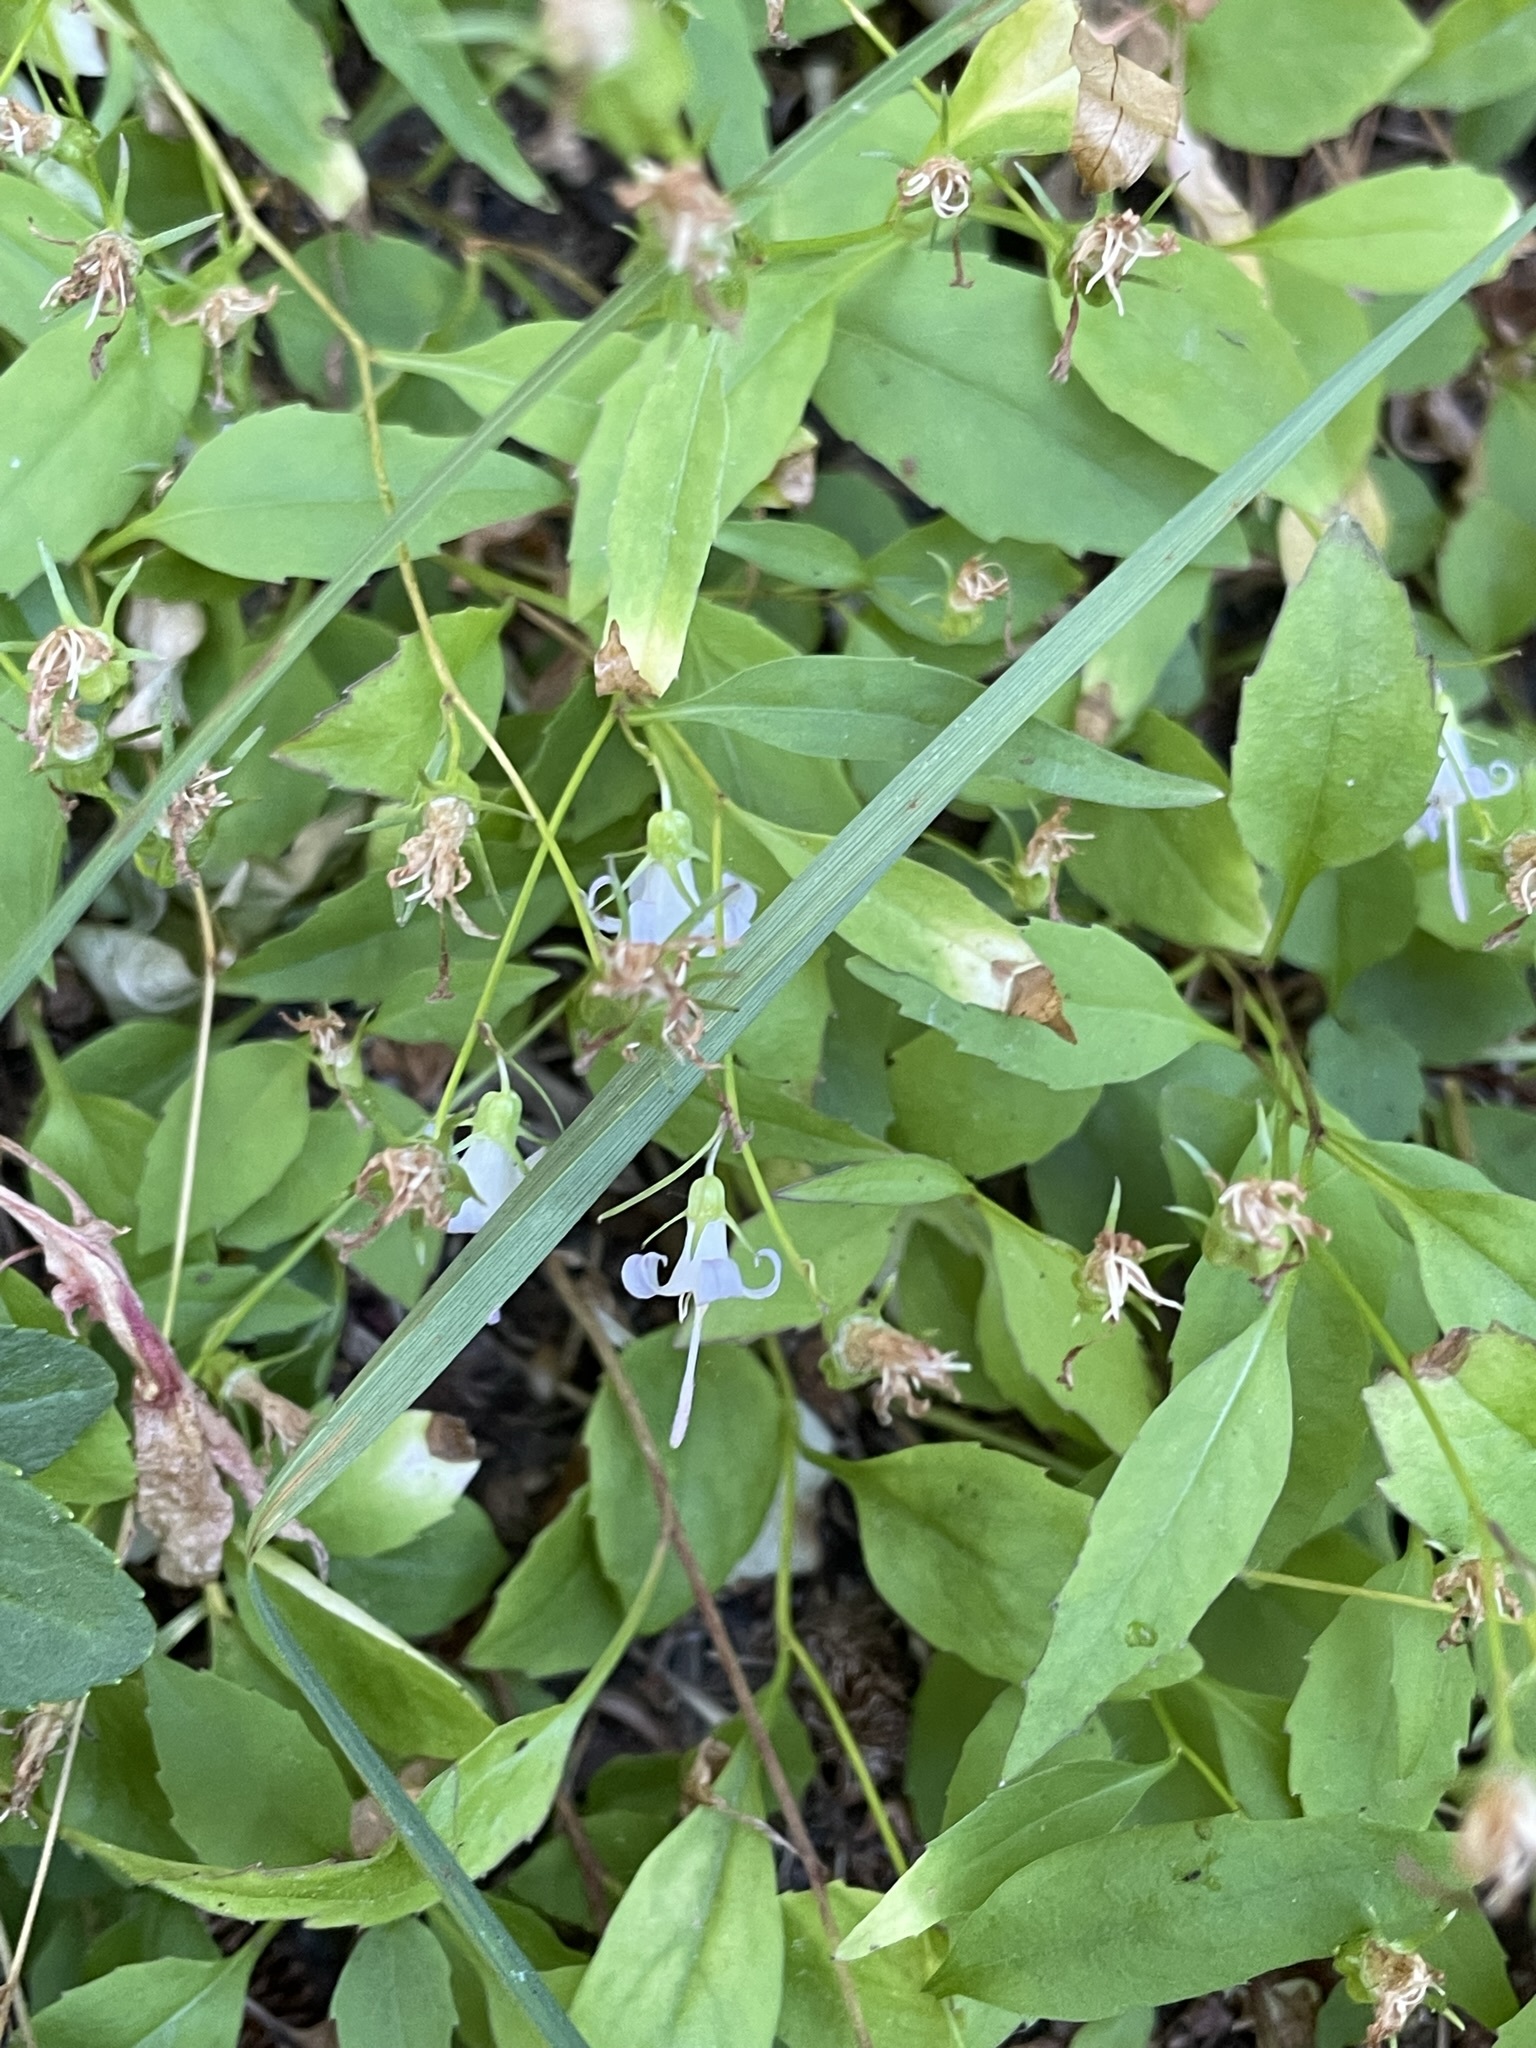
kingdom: Plantae
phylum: Tracheophyta
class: Magnoliopsida
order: Asterales
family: Campanulaceae
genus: Campanula
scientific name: Campanula scouleri
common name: Scouler's harebell
